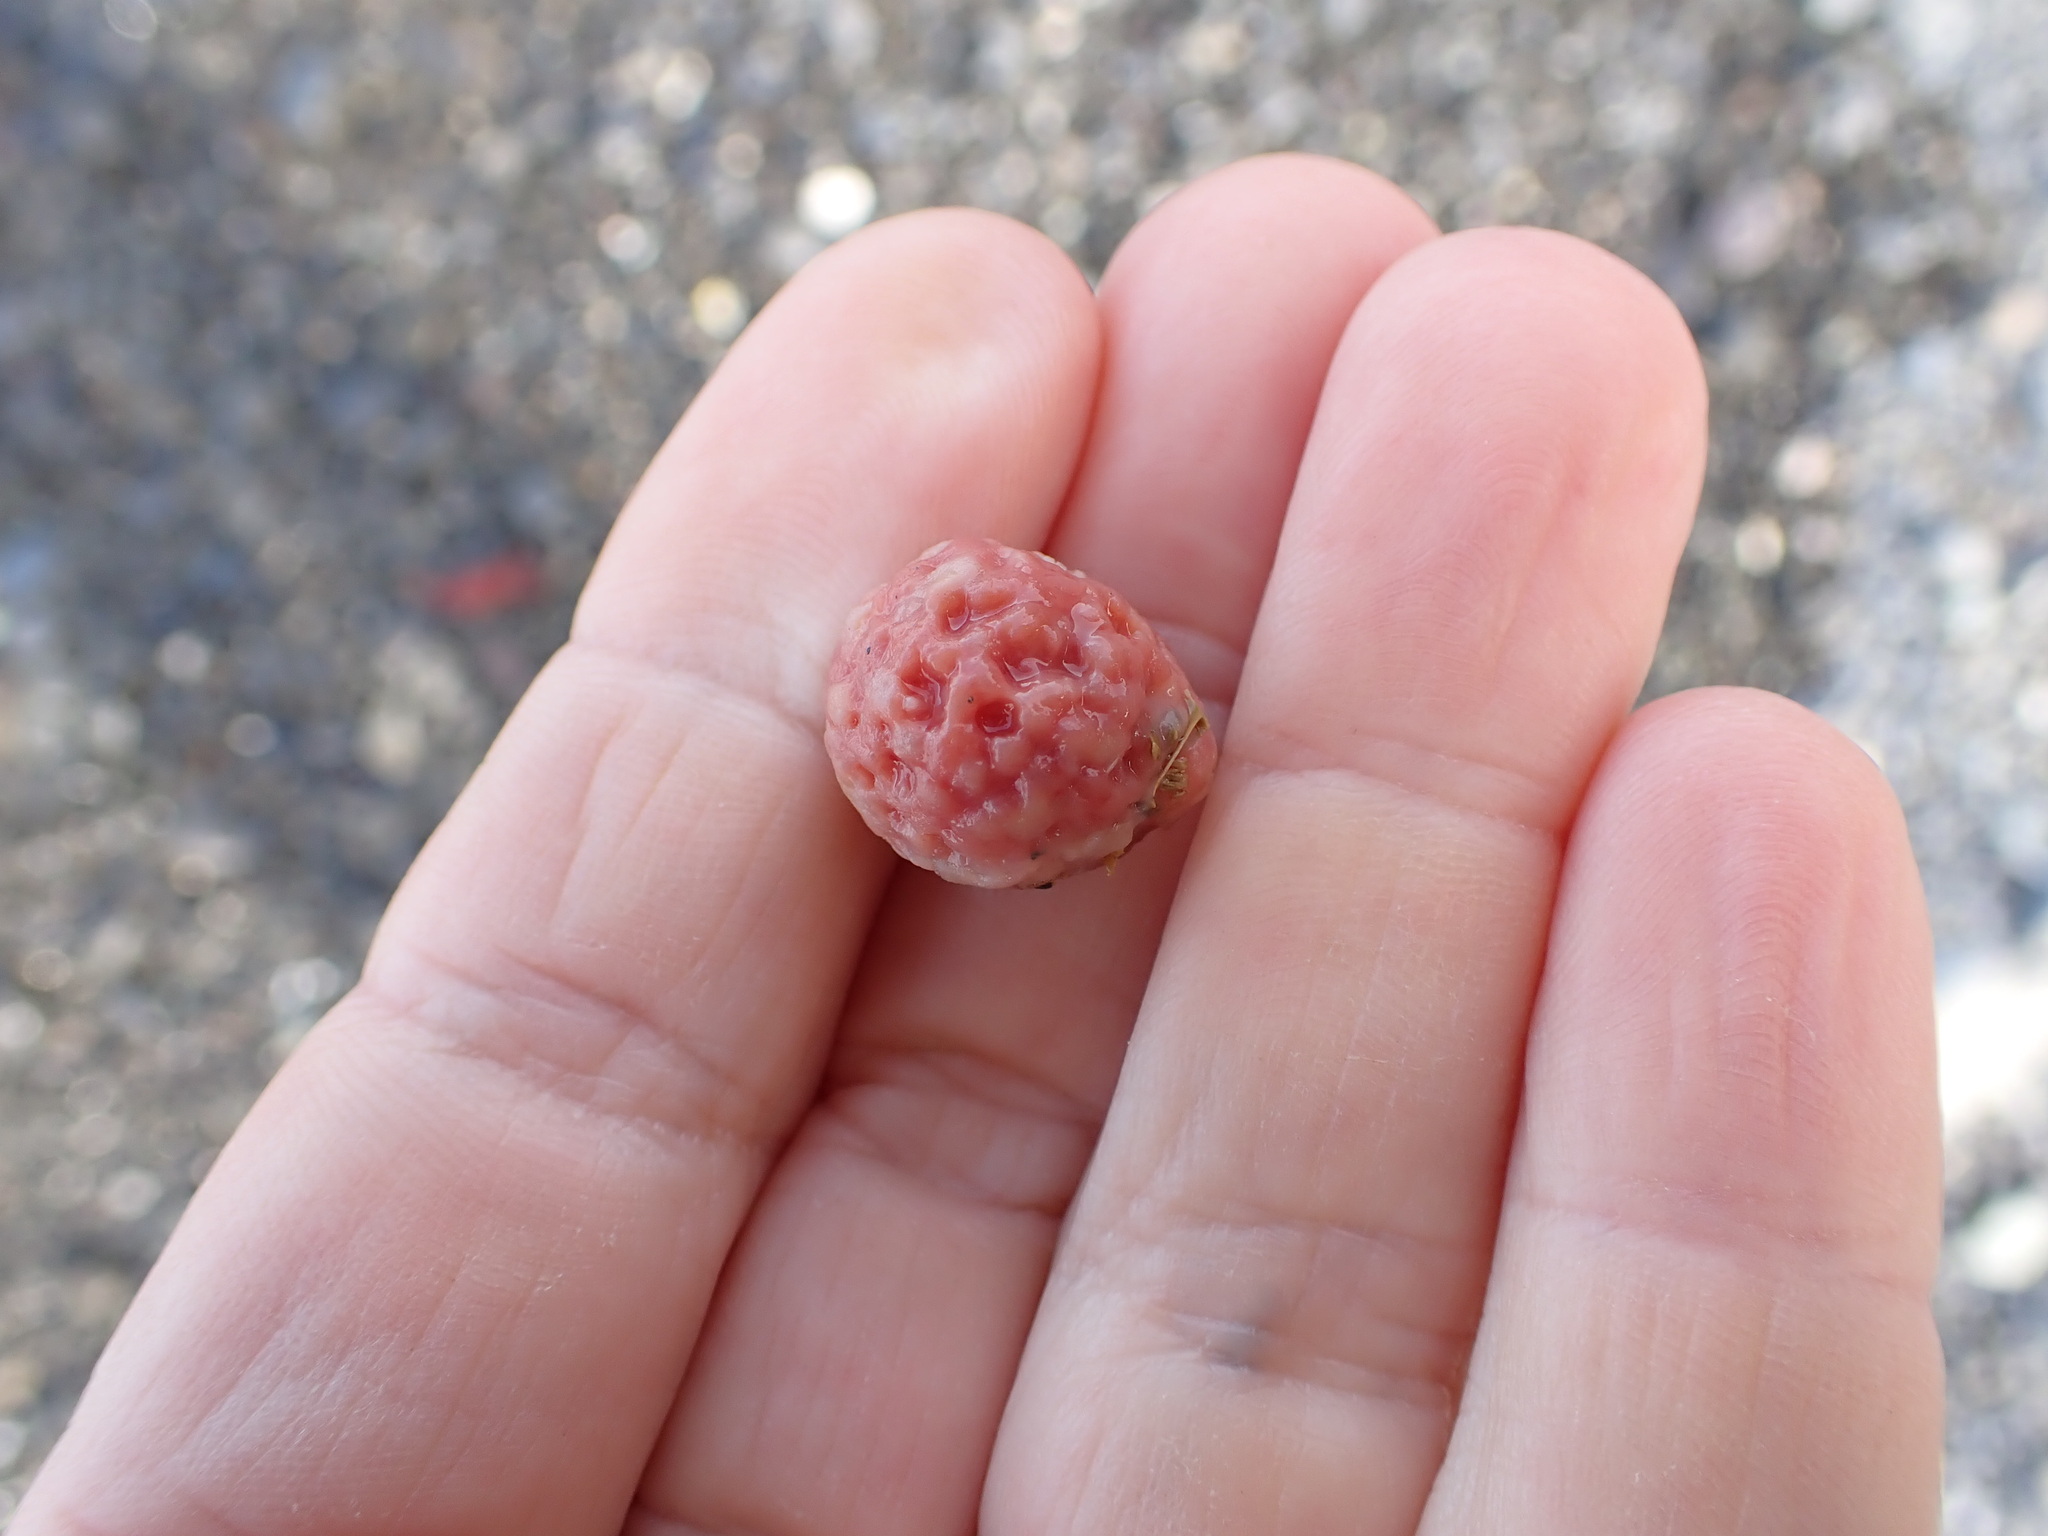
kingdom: Animalia
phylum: Porifera
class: Demospongiae
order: Tethyida
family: Tethyidae
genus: Tethya
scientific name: Tethya bergquistae
